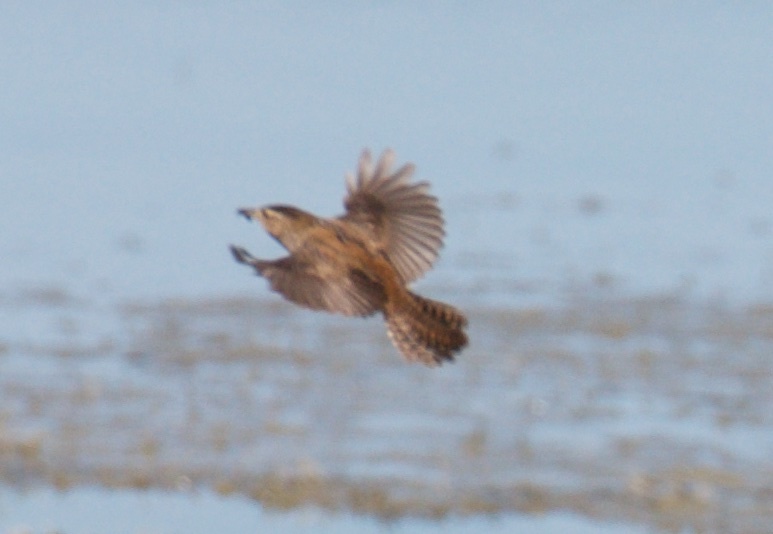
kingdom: Animalia
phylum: Chordata
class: Aves
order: Passeriformes
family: Troglodytidae
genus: Cistothorus
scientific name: Cistothorus palustris
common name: Marsh wren
